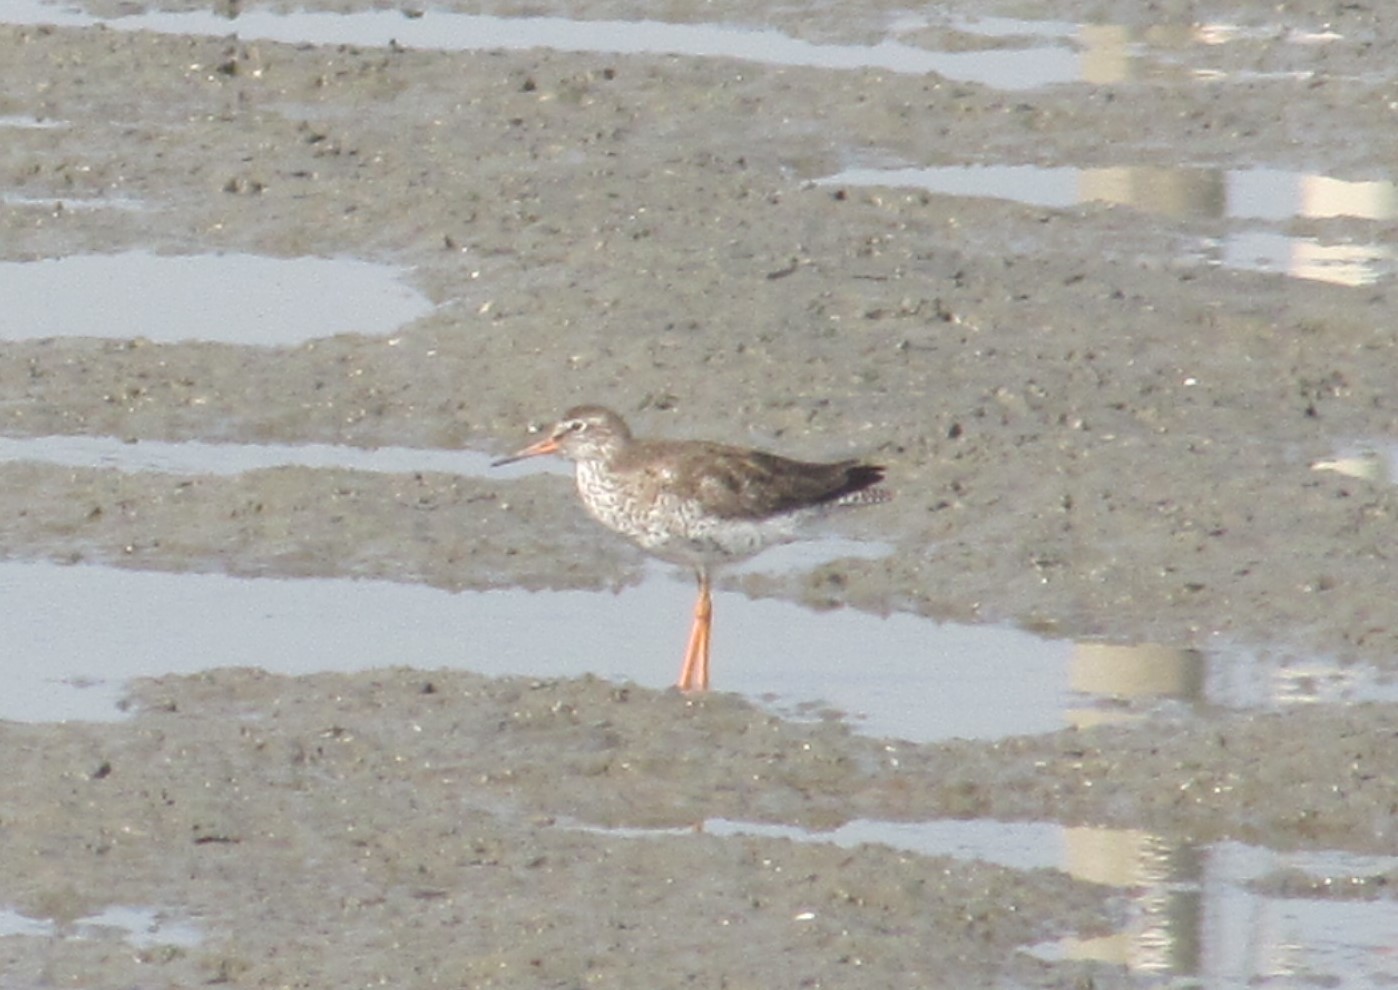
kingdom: Animalia
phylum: Chordata
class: Aves
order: Charadriiformes
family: Scolopacidae
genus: Tringa
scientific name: Tringa totanus
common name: Common redshank
